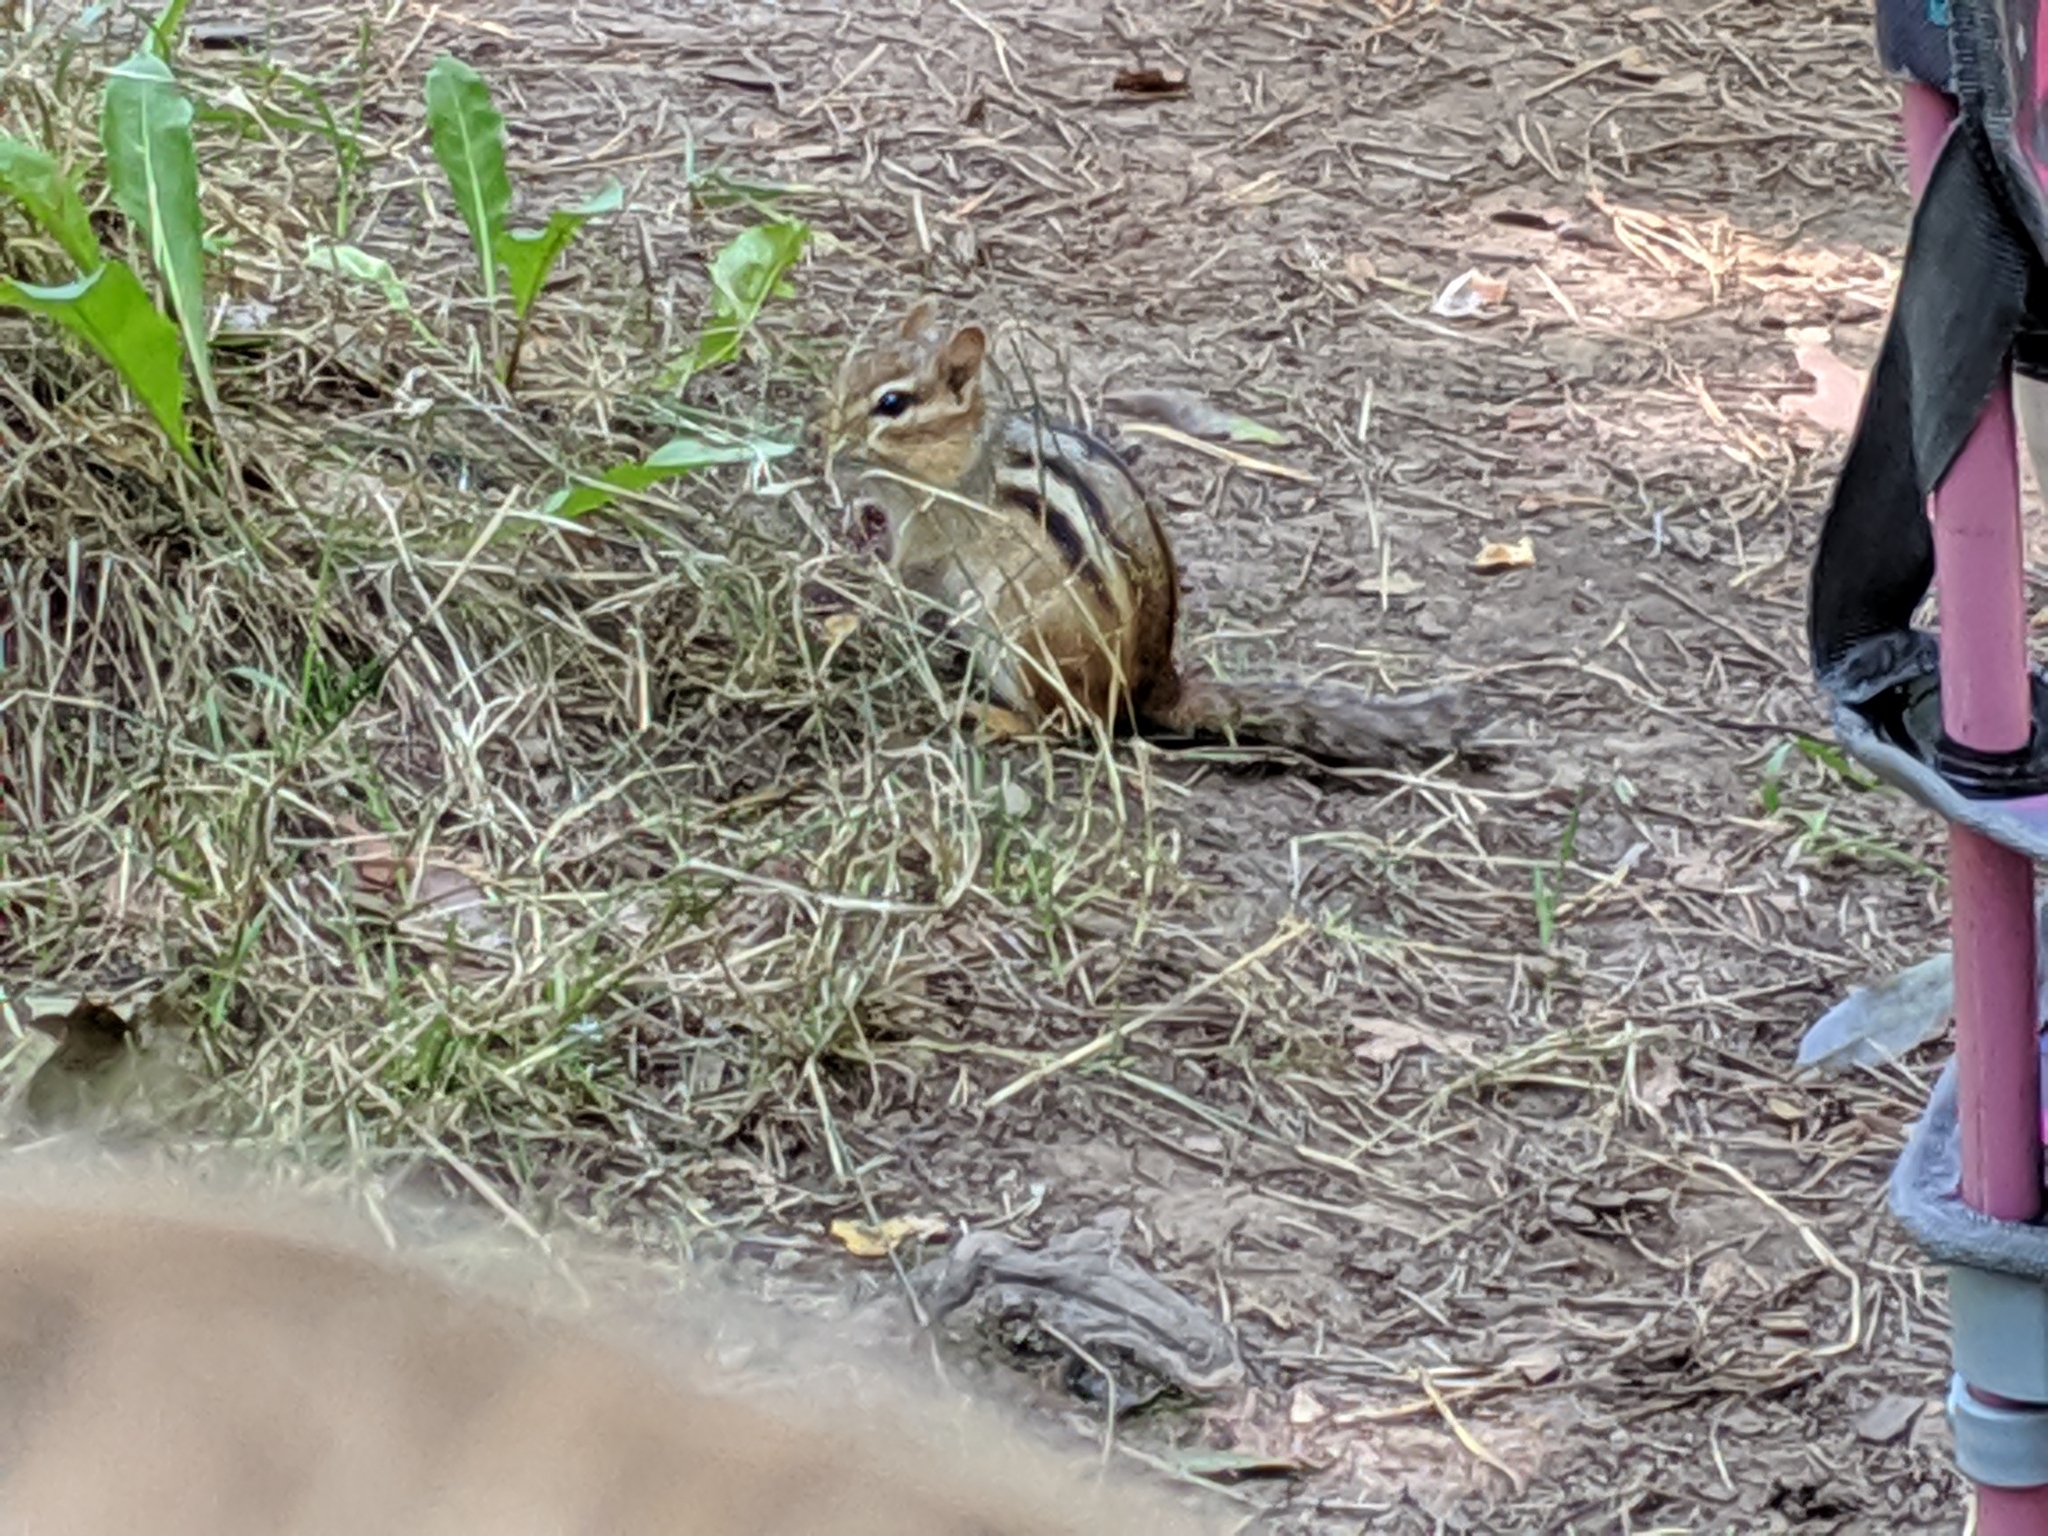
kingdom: Animalia
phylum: Chordata
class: Mammalia
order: Rodentia
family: Sciuridae
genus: Tamias
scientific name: Tamias striatus
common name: Eastern chipmunk
